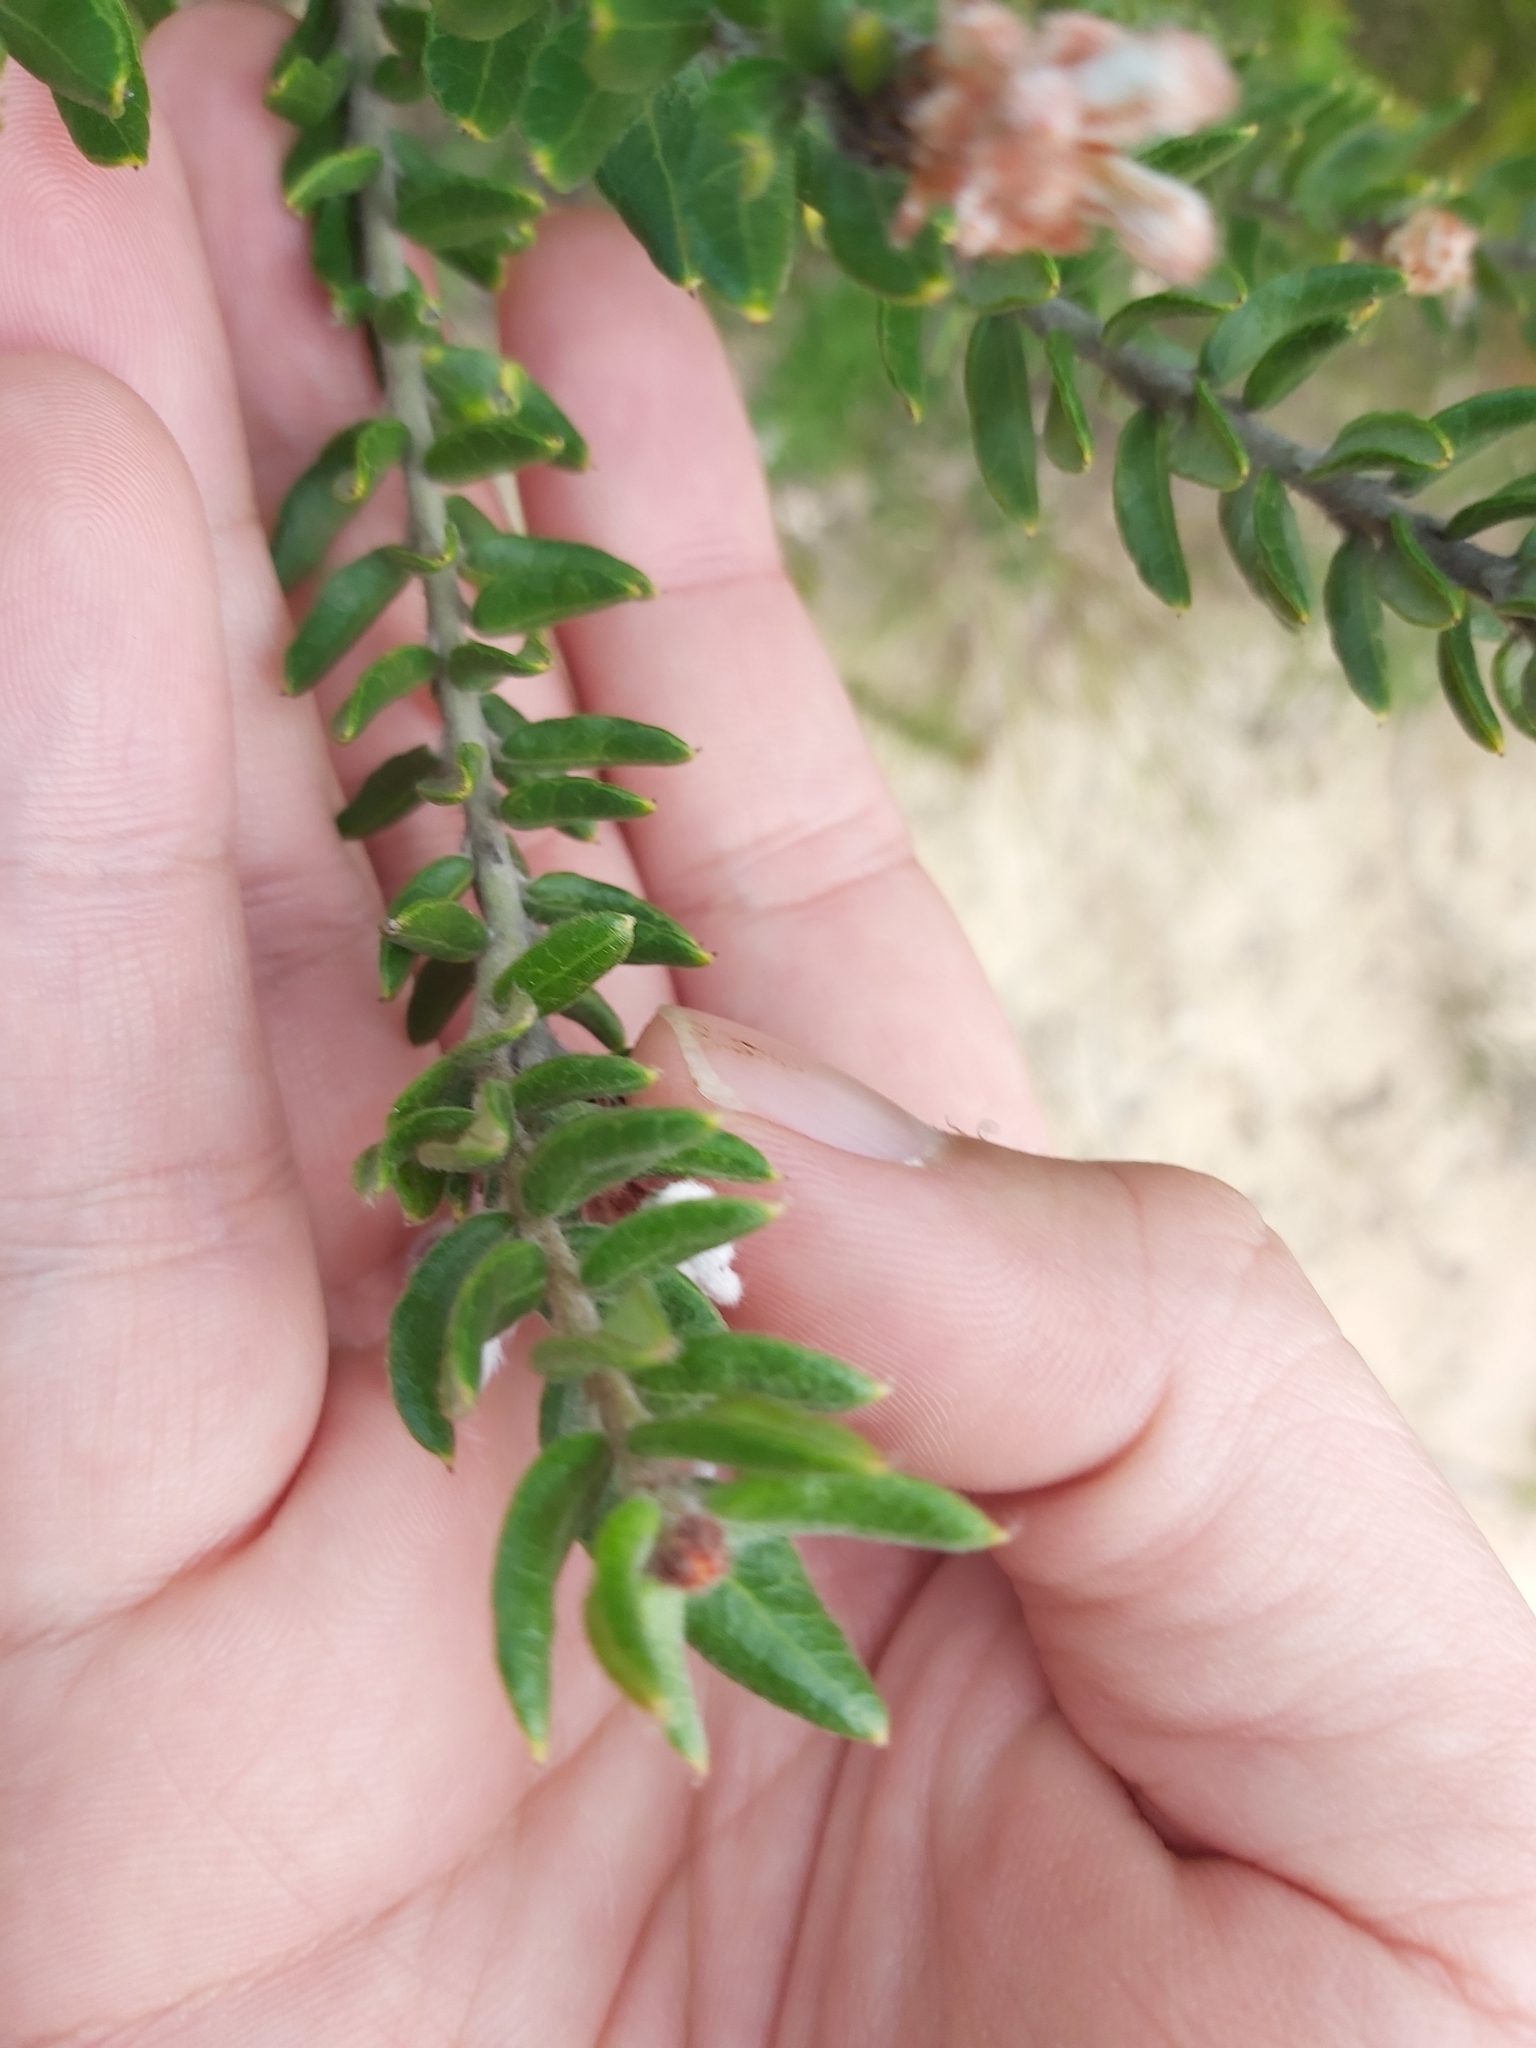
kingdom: Plantae
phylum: Tracheophyta
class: Magnoliopsida
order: Proteales
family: Proteaceae
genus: Grevillea
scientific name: Grevillea buxifolia
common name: Grey spiderflower
